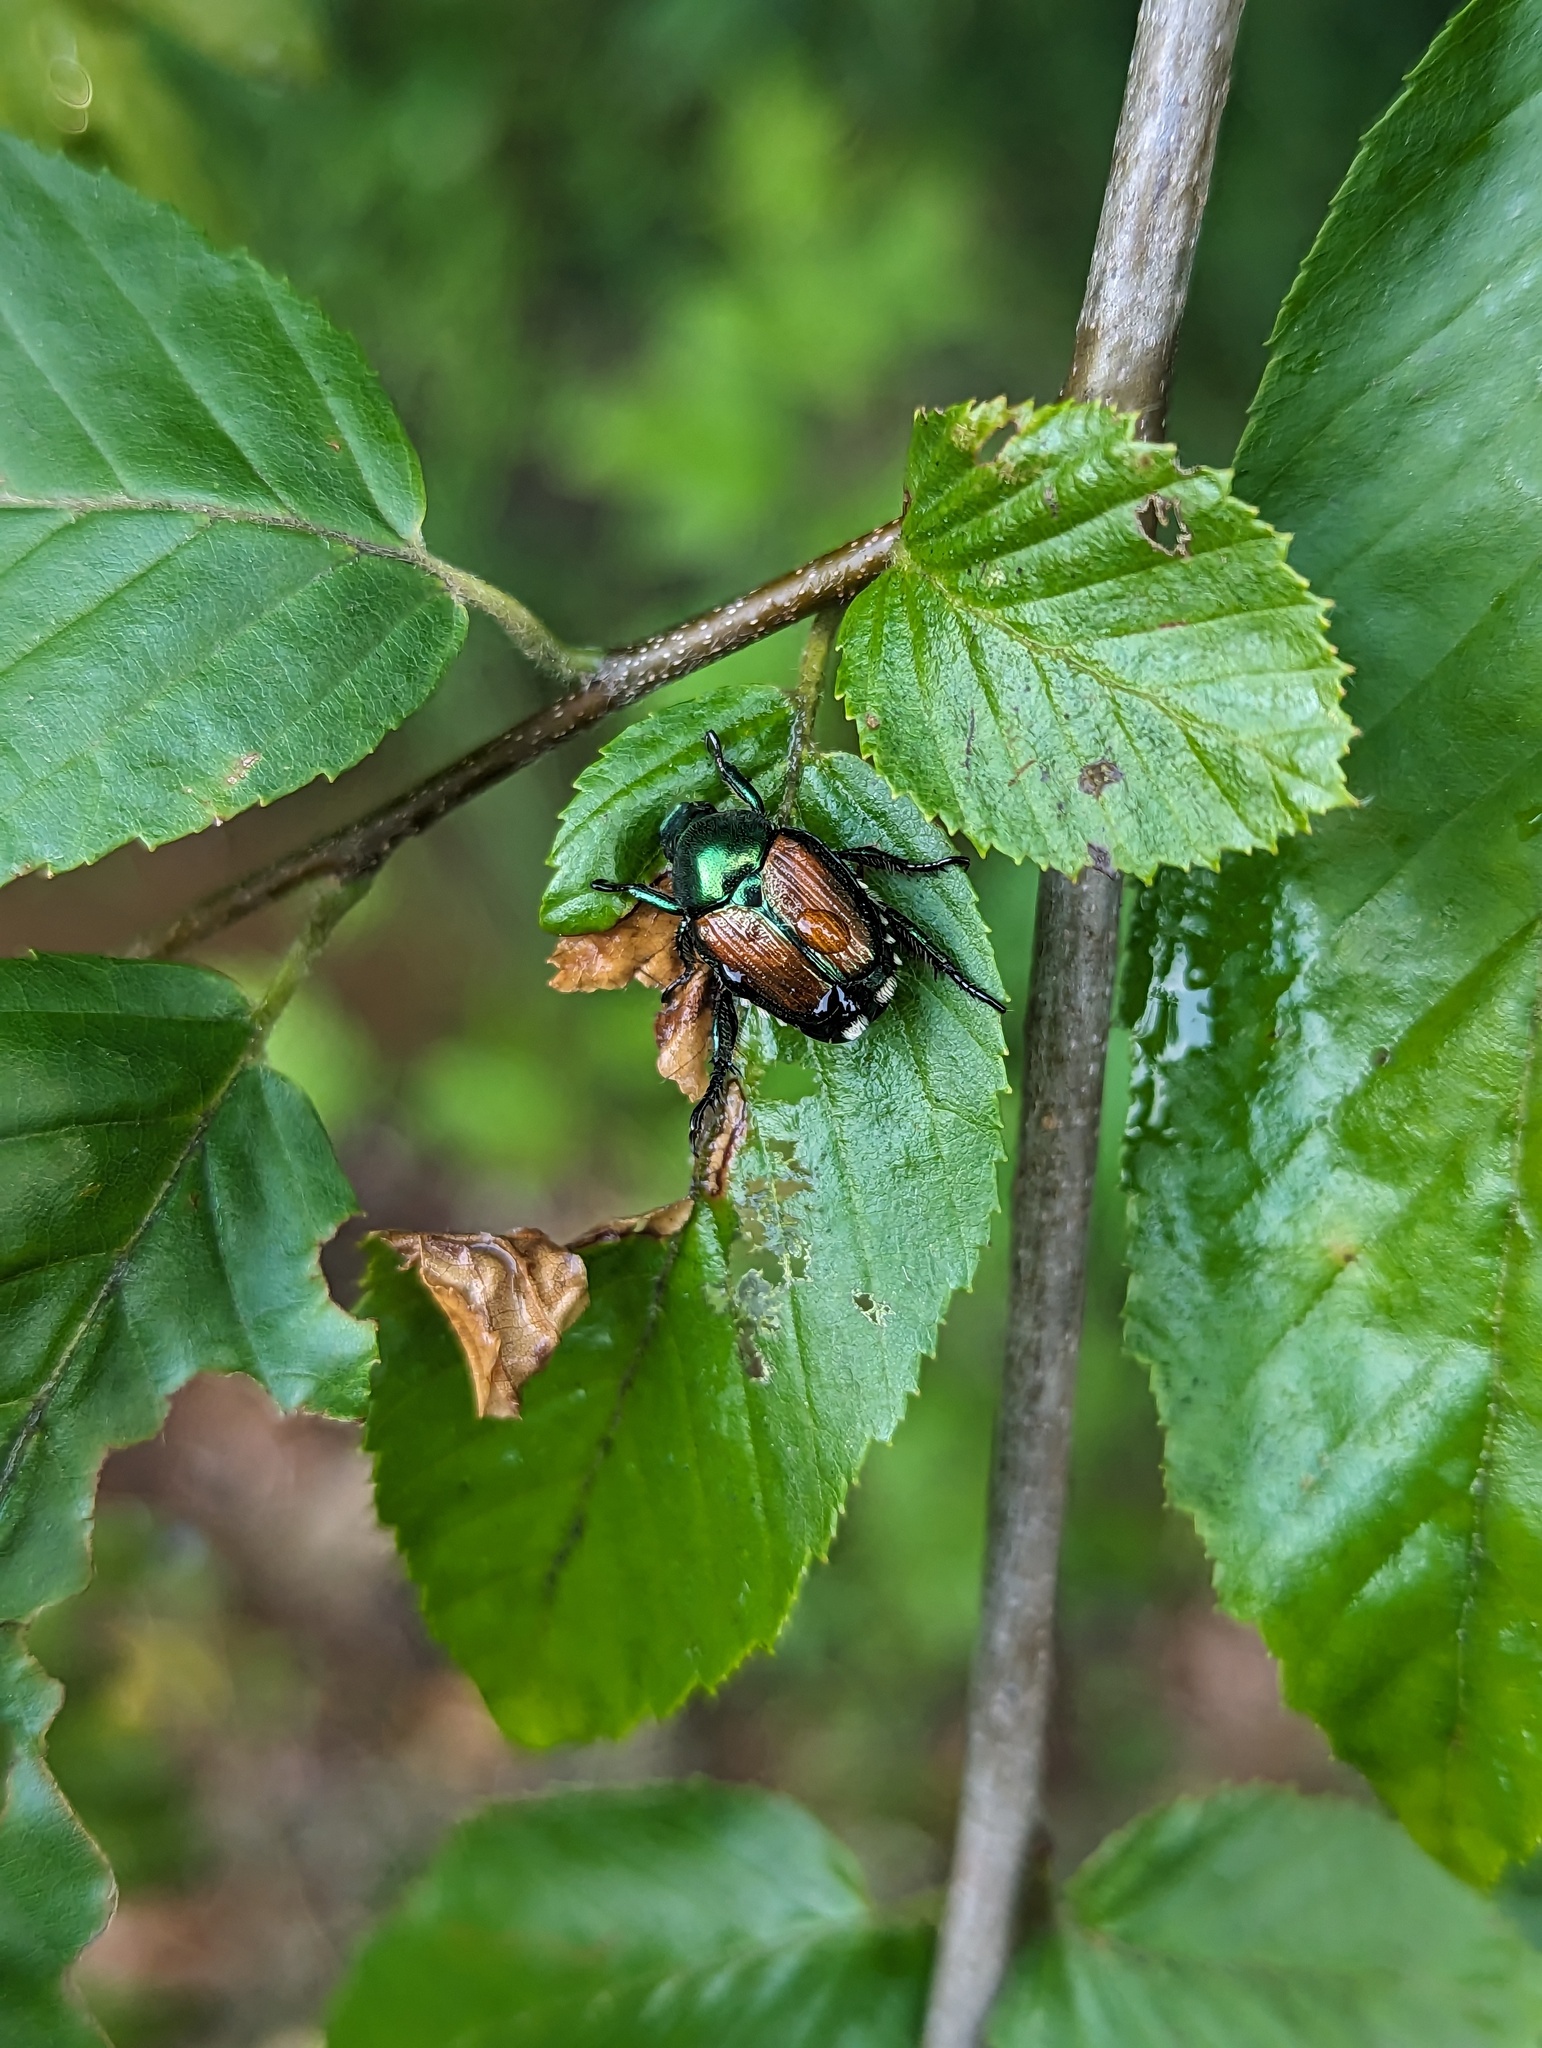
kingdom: Animalia
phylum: Arthropoda
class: Insecta
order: Coleoptera
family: Scarabaeidae
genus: Popillia
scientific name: Popillia japonica
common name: Japanese beetle
